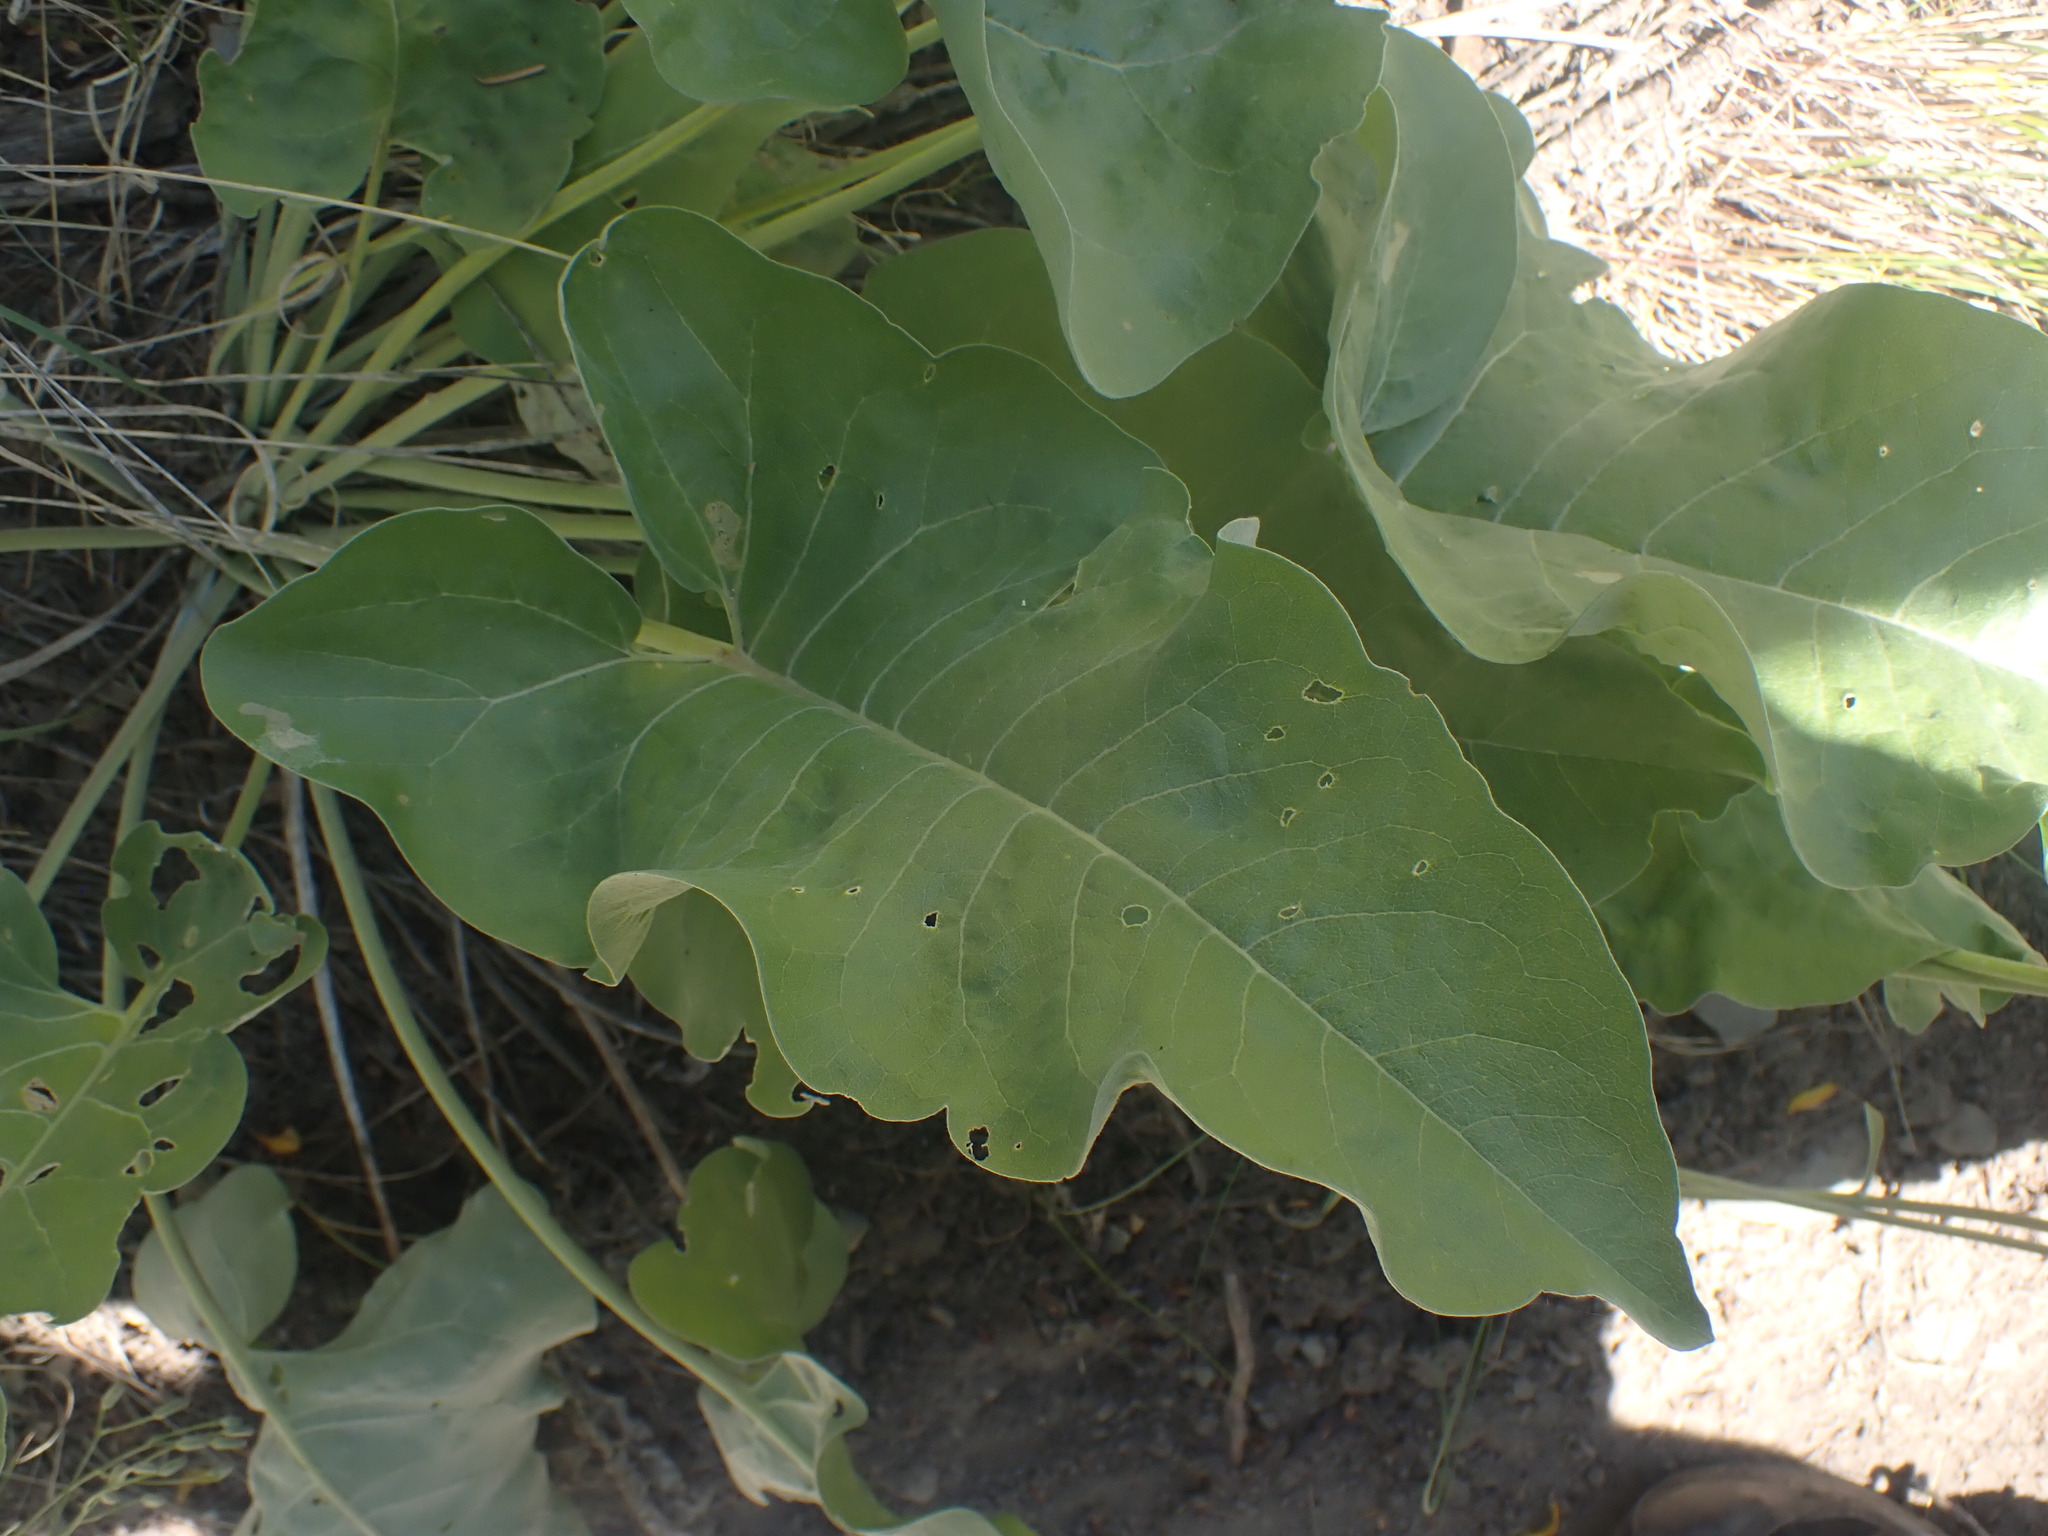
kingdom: Plantae
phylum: Tracheophyta
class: Magnoliopsida
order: Asterales
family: Asteraceae
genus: Wyethia
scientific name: Wyethia sagittata
